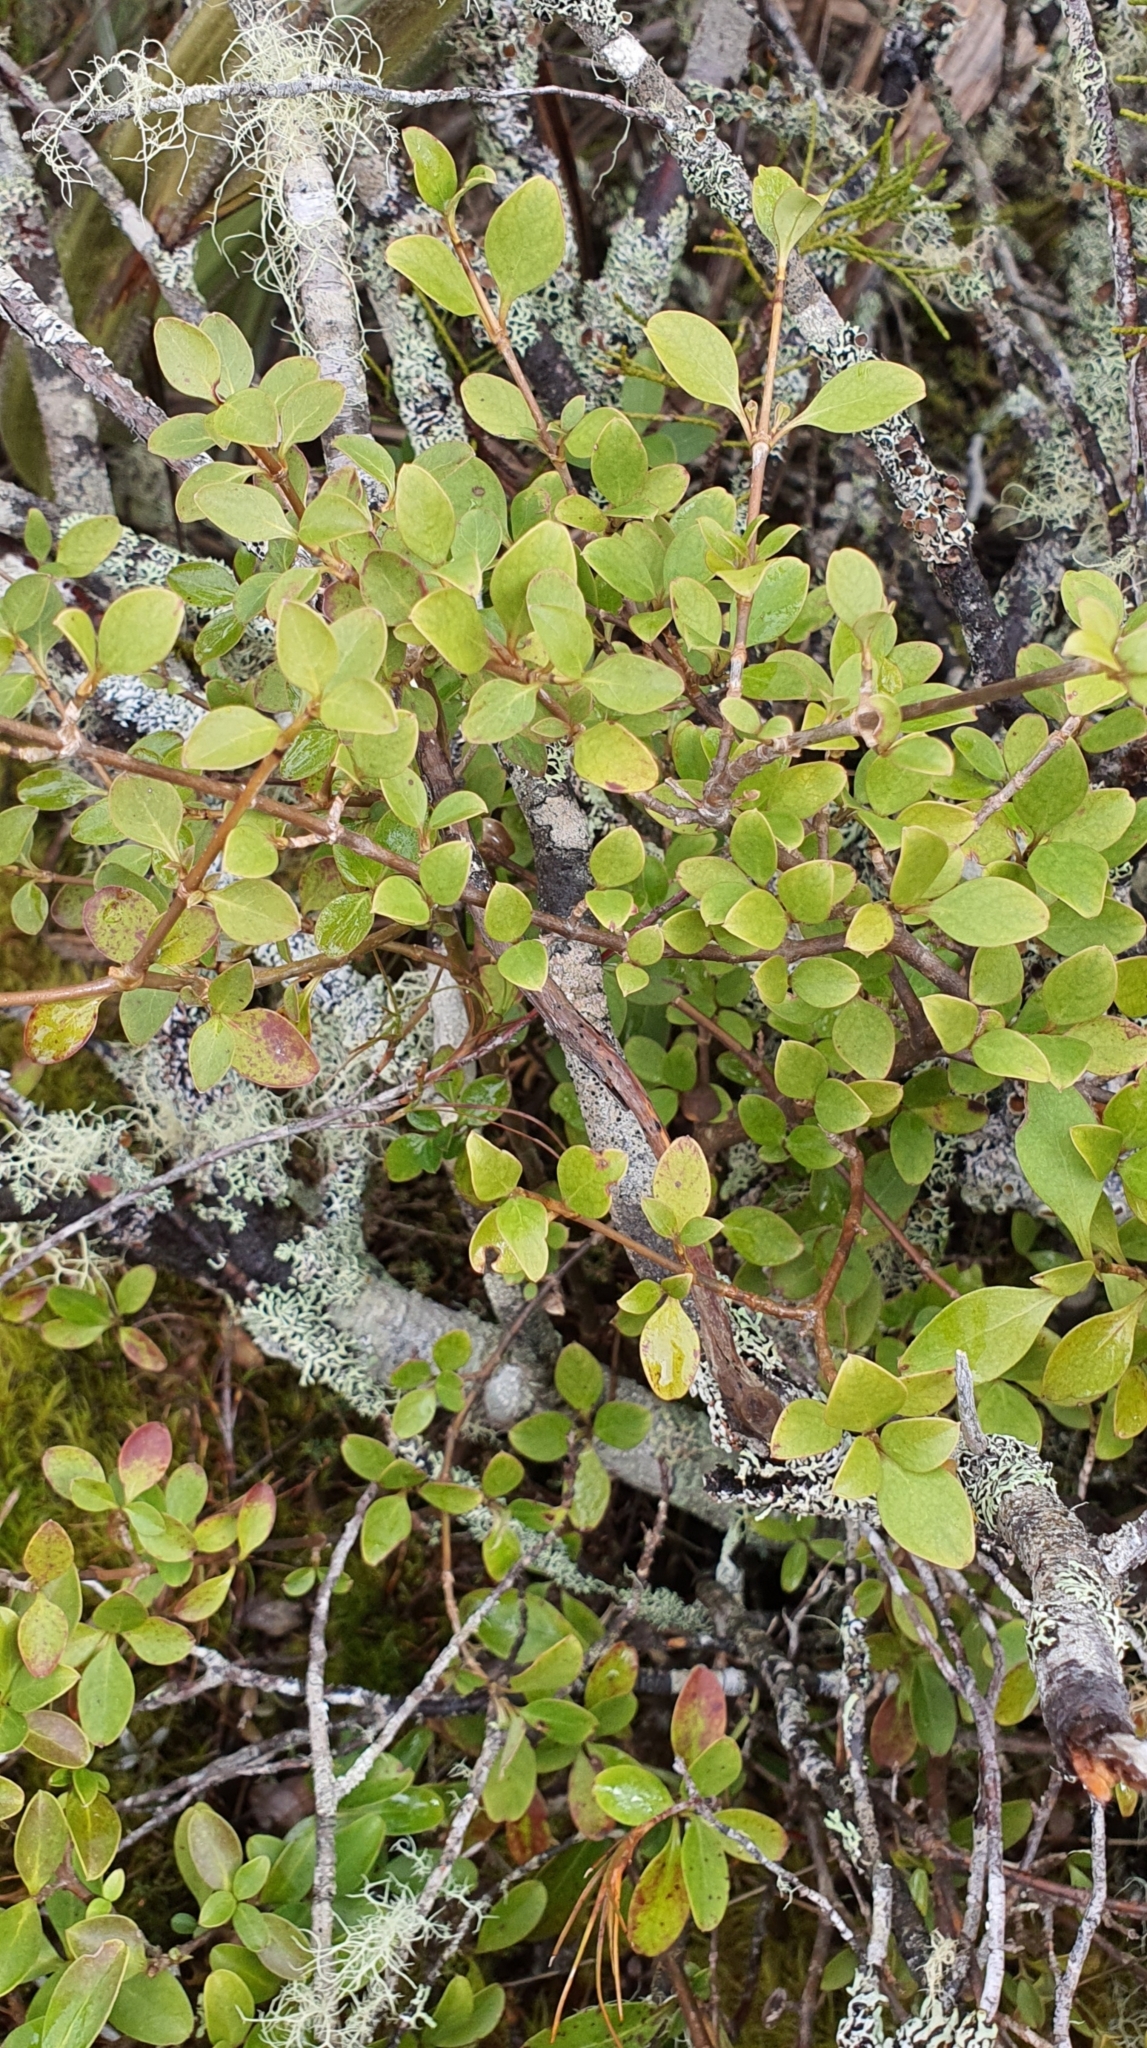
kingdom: Plantae
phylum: Tracheophyta
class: Magnoliopsida
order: Gentianales
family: Rubiaceae
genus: Coprosma
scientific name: Coprosma foetidissima
